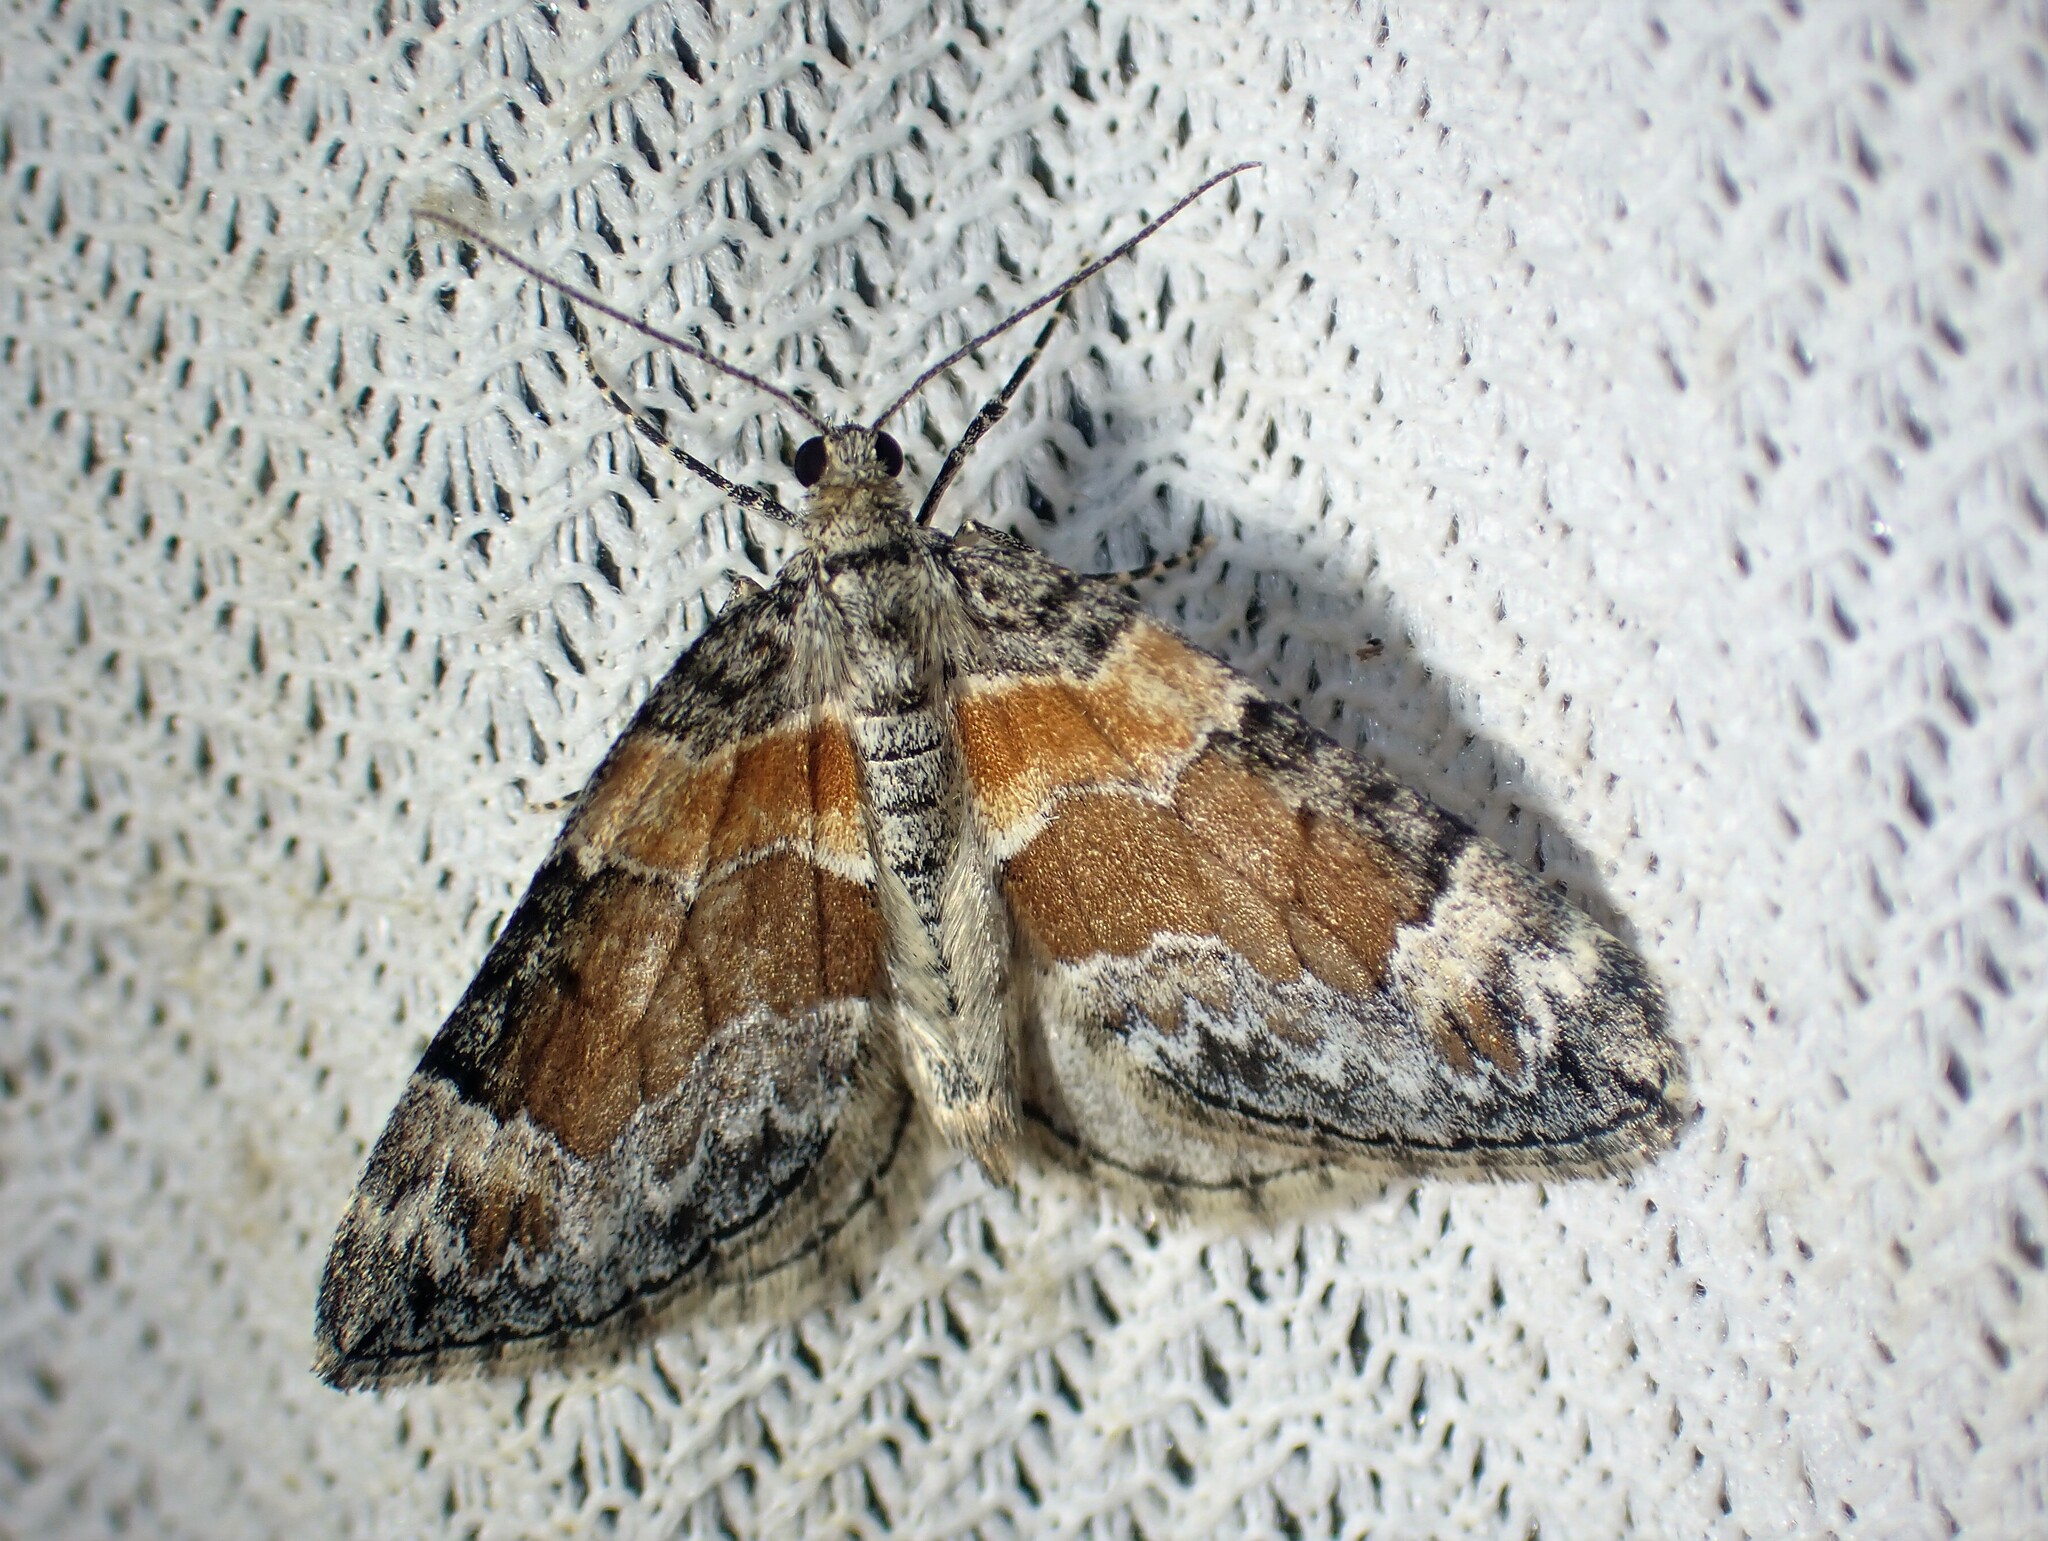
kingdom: Animalia
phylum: Arthropoda
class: Insecta
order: Lepidoptera
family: Geometridae
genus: Dysstroma
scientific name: Dysstroma hersiliata
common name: Orange-barred carpet
